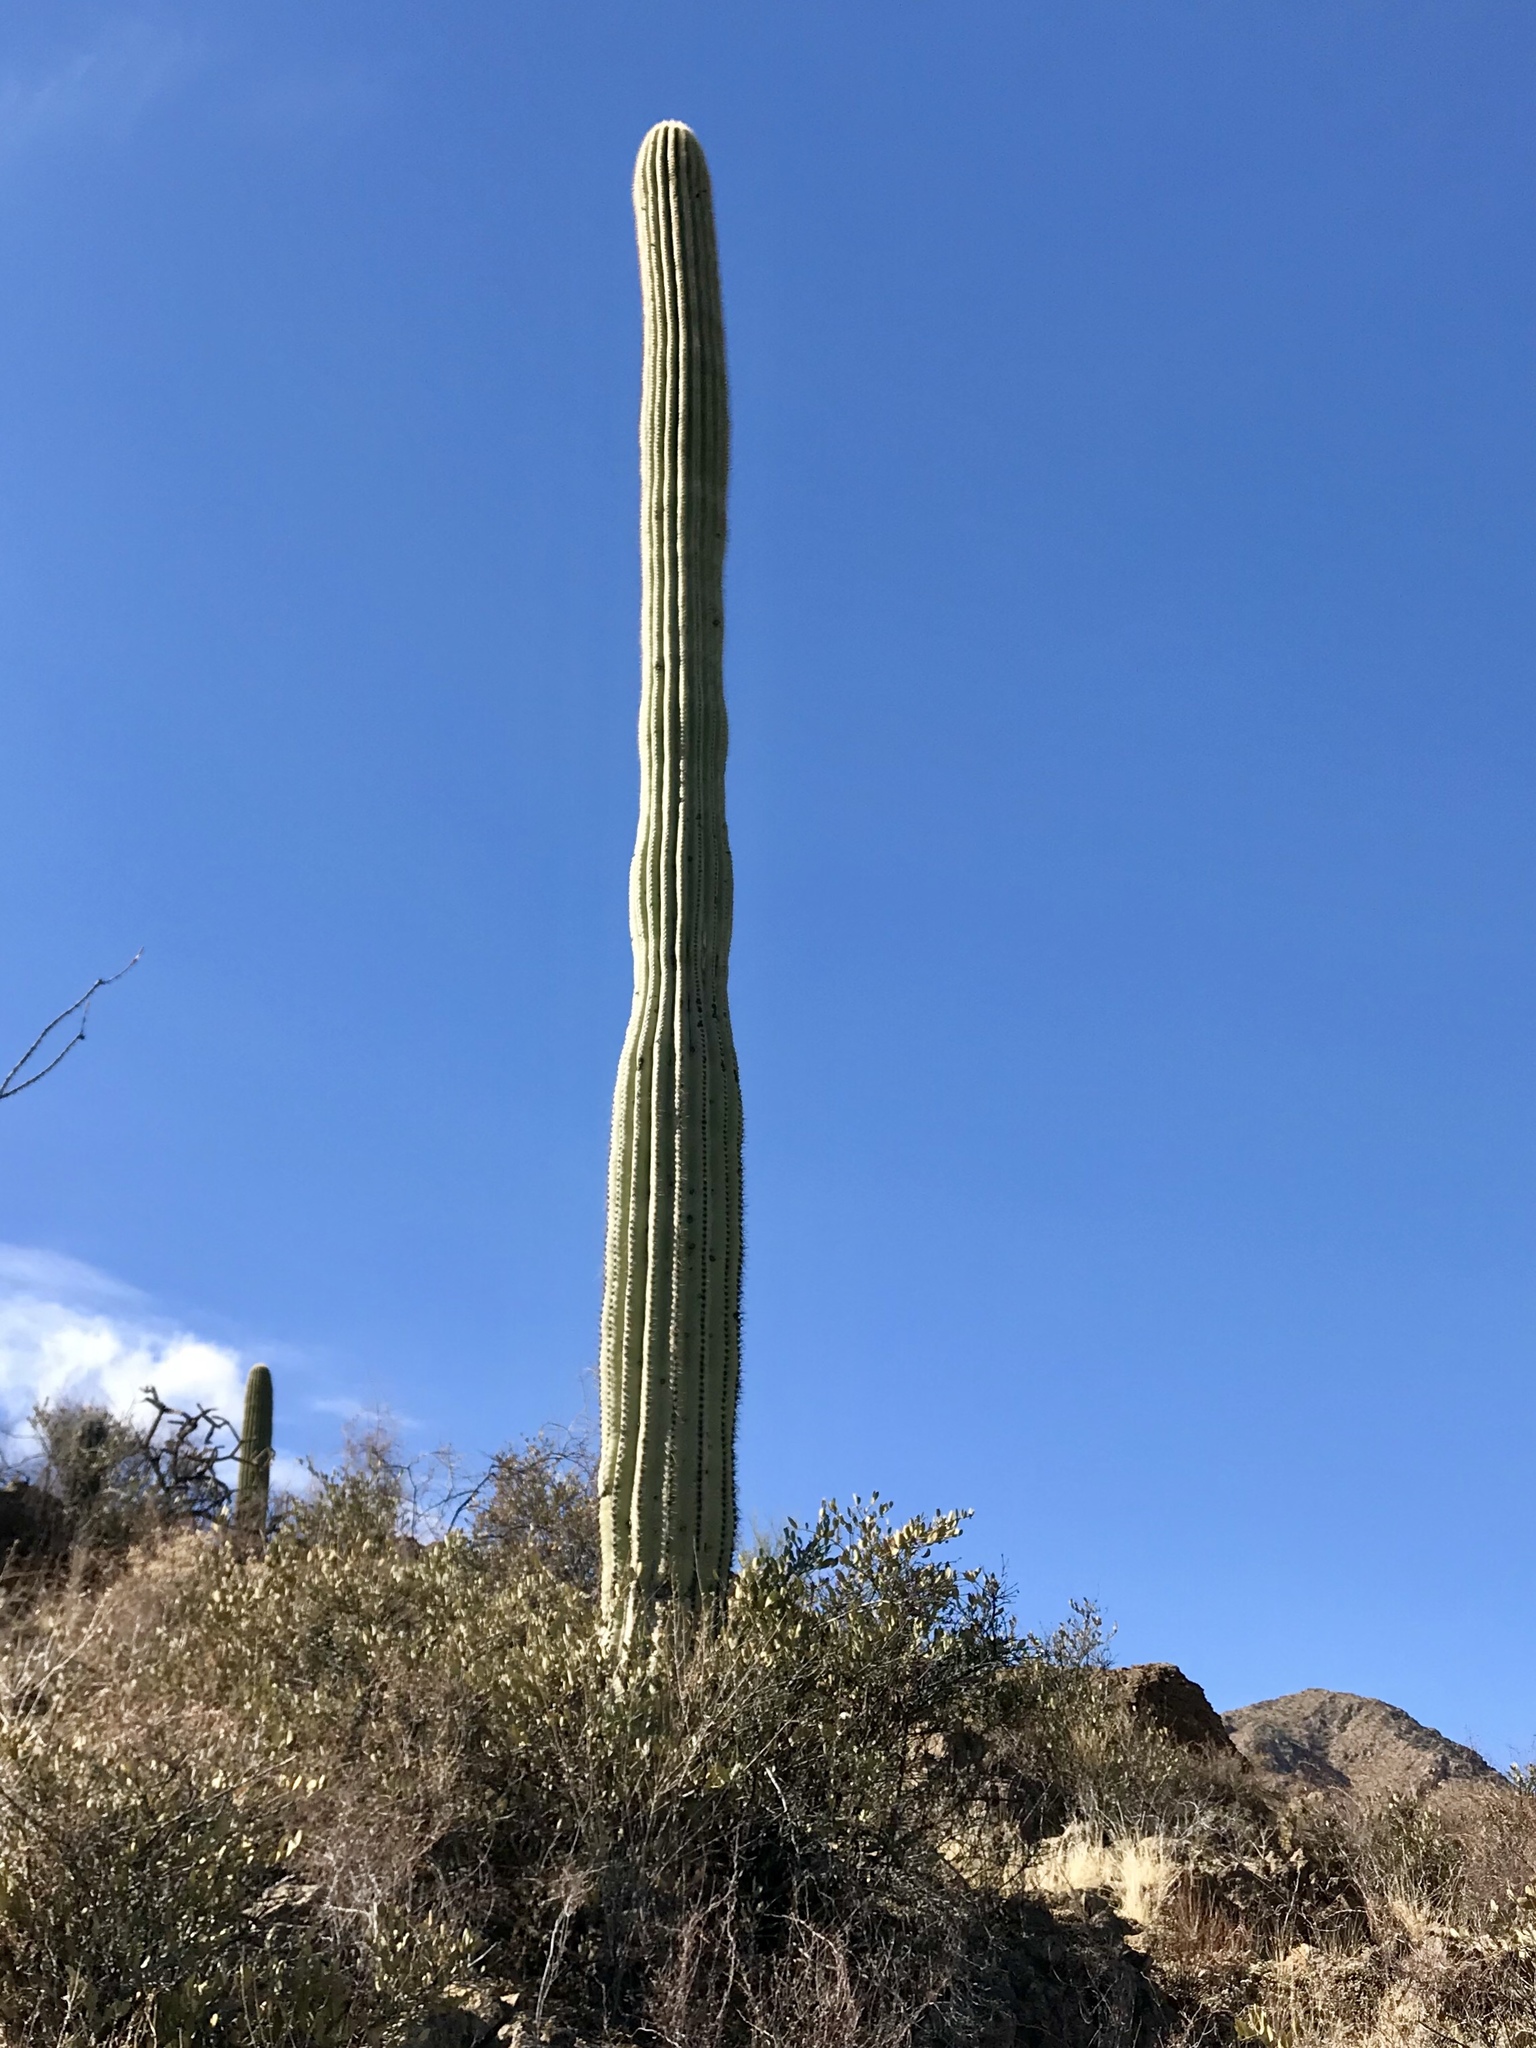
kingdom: Plantae
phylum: Tracheophyta
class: Magnoliopsida
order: Caryophyllales
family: Cactaceae
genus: Carnegiea
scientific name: Carnegiea gigantea
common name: Saguaro
